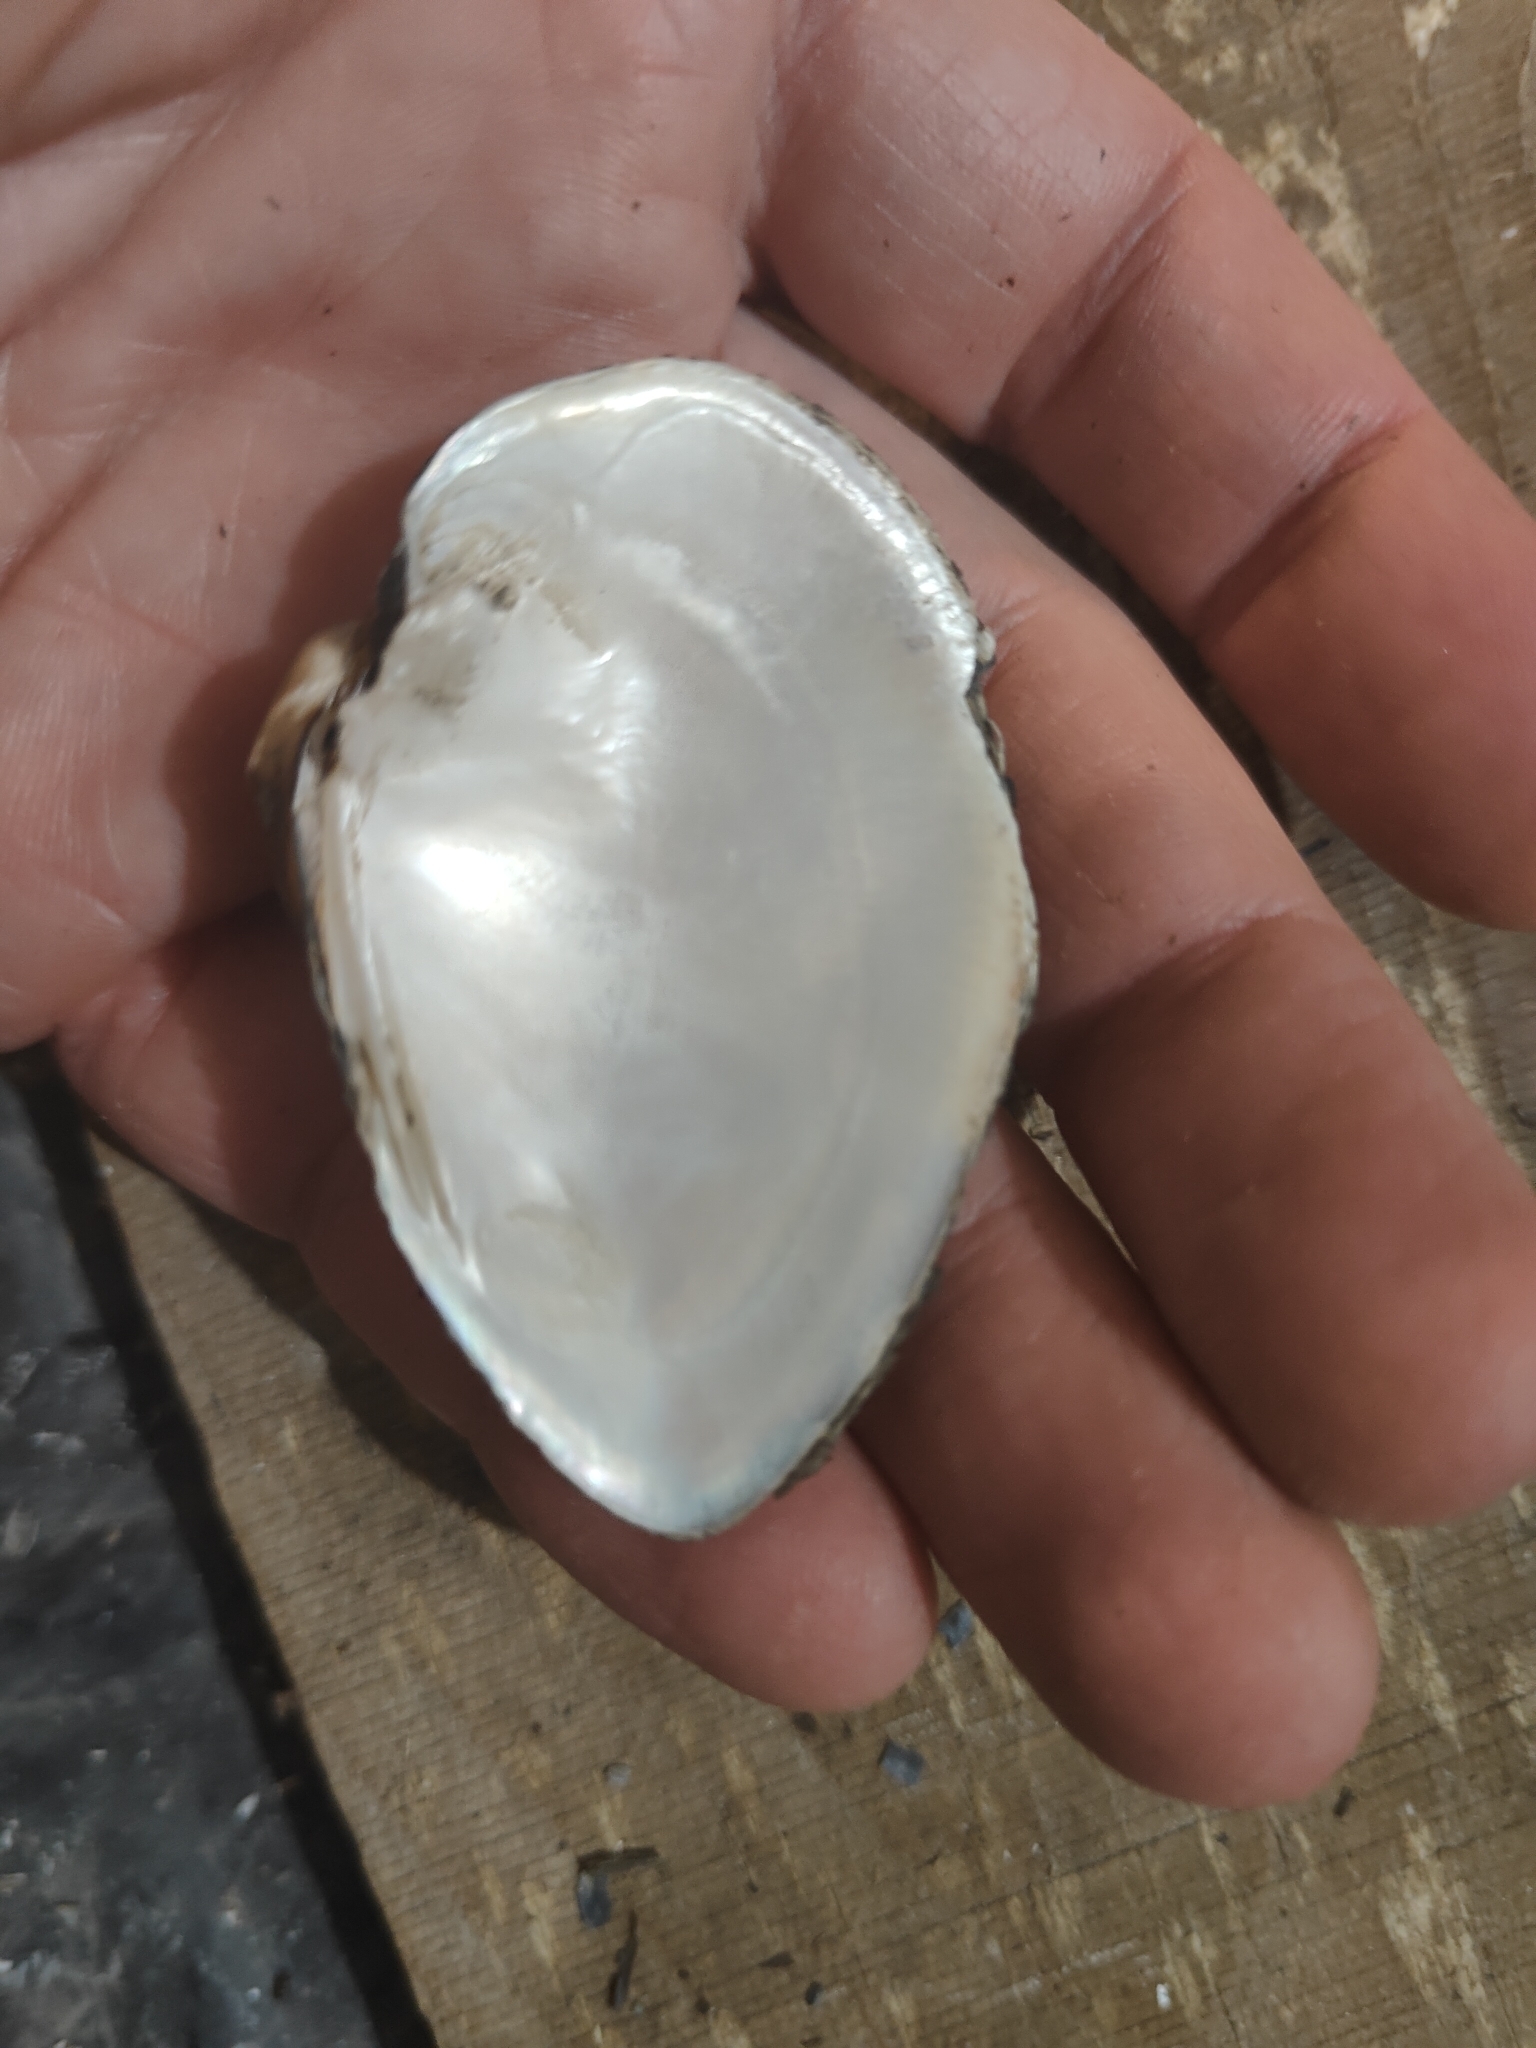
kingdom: Animalia
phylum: Mollusca
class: Bivalvia
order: Unionida
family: Unionidae
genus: Truncilla
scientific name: Truncilla truncata
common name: Deertoe
